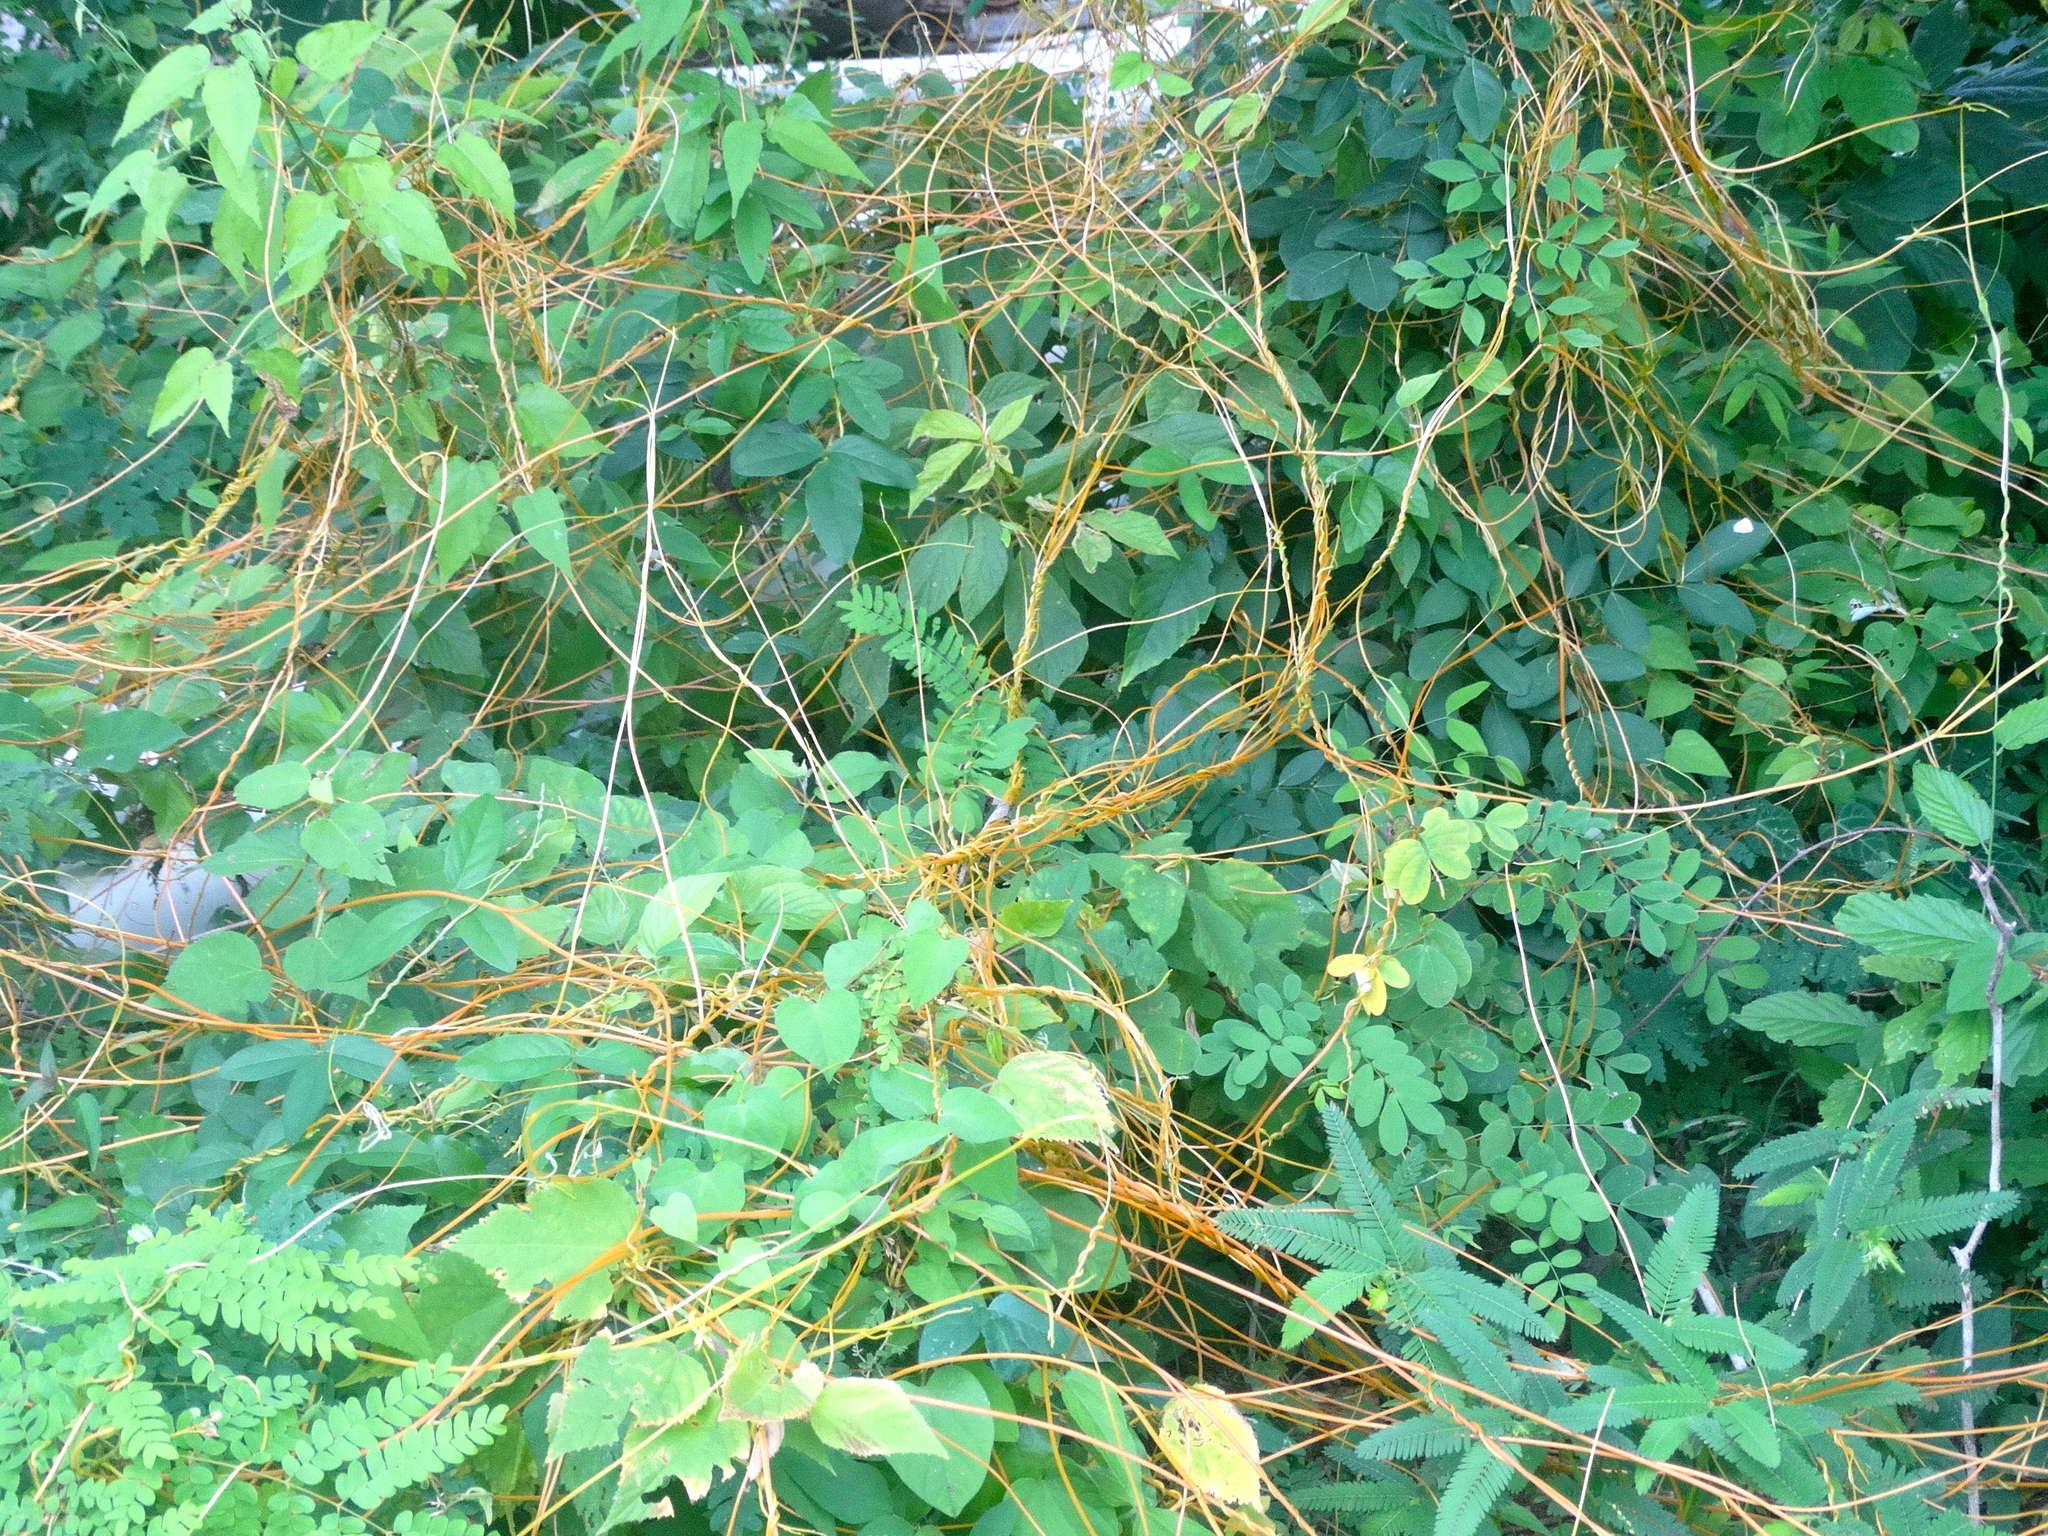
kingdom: Plantae
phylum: Tracheophyta
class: Magnoliopsida
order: Solanales
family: Convolvulaceae
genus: Cuscuta
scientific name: Cuscuta
